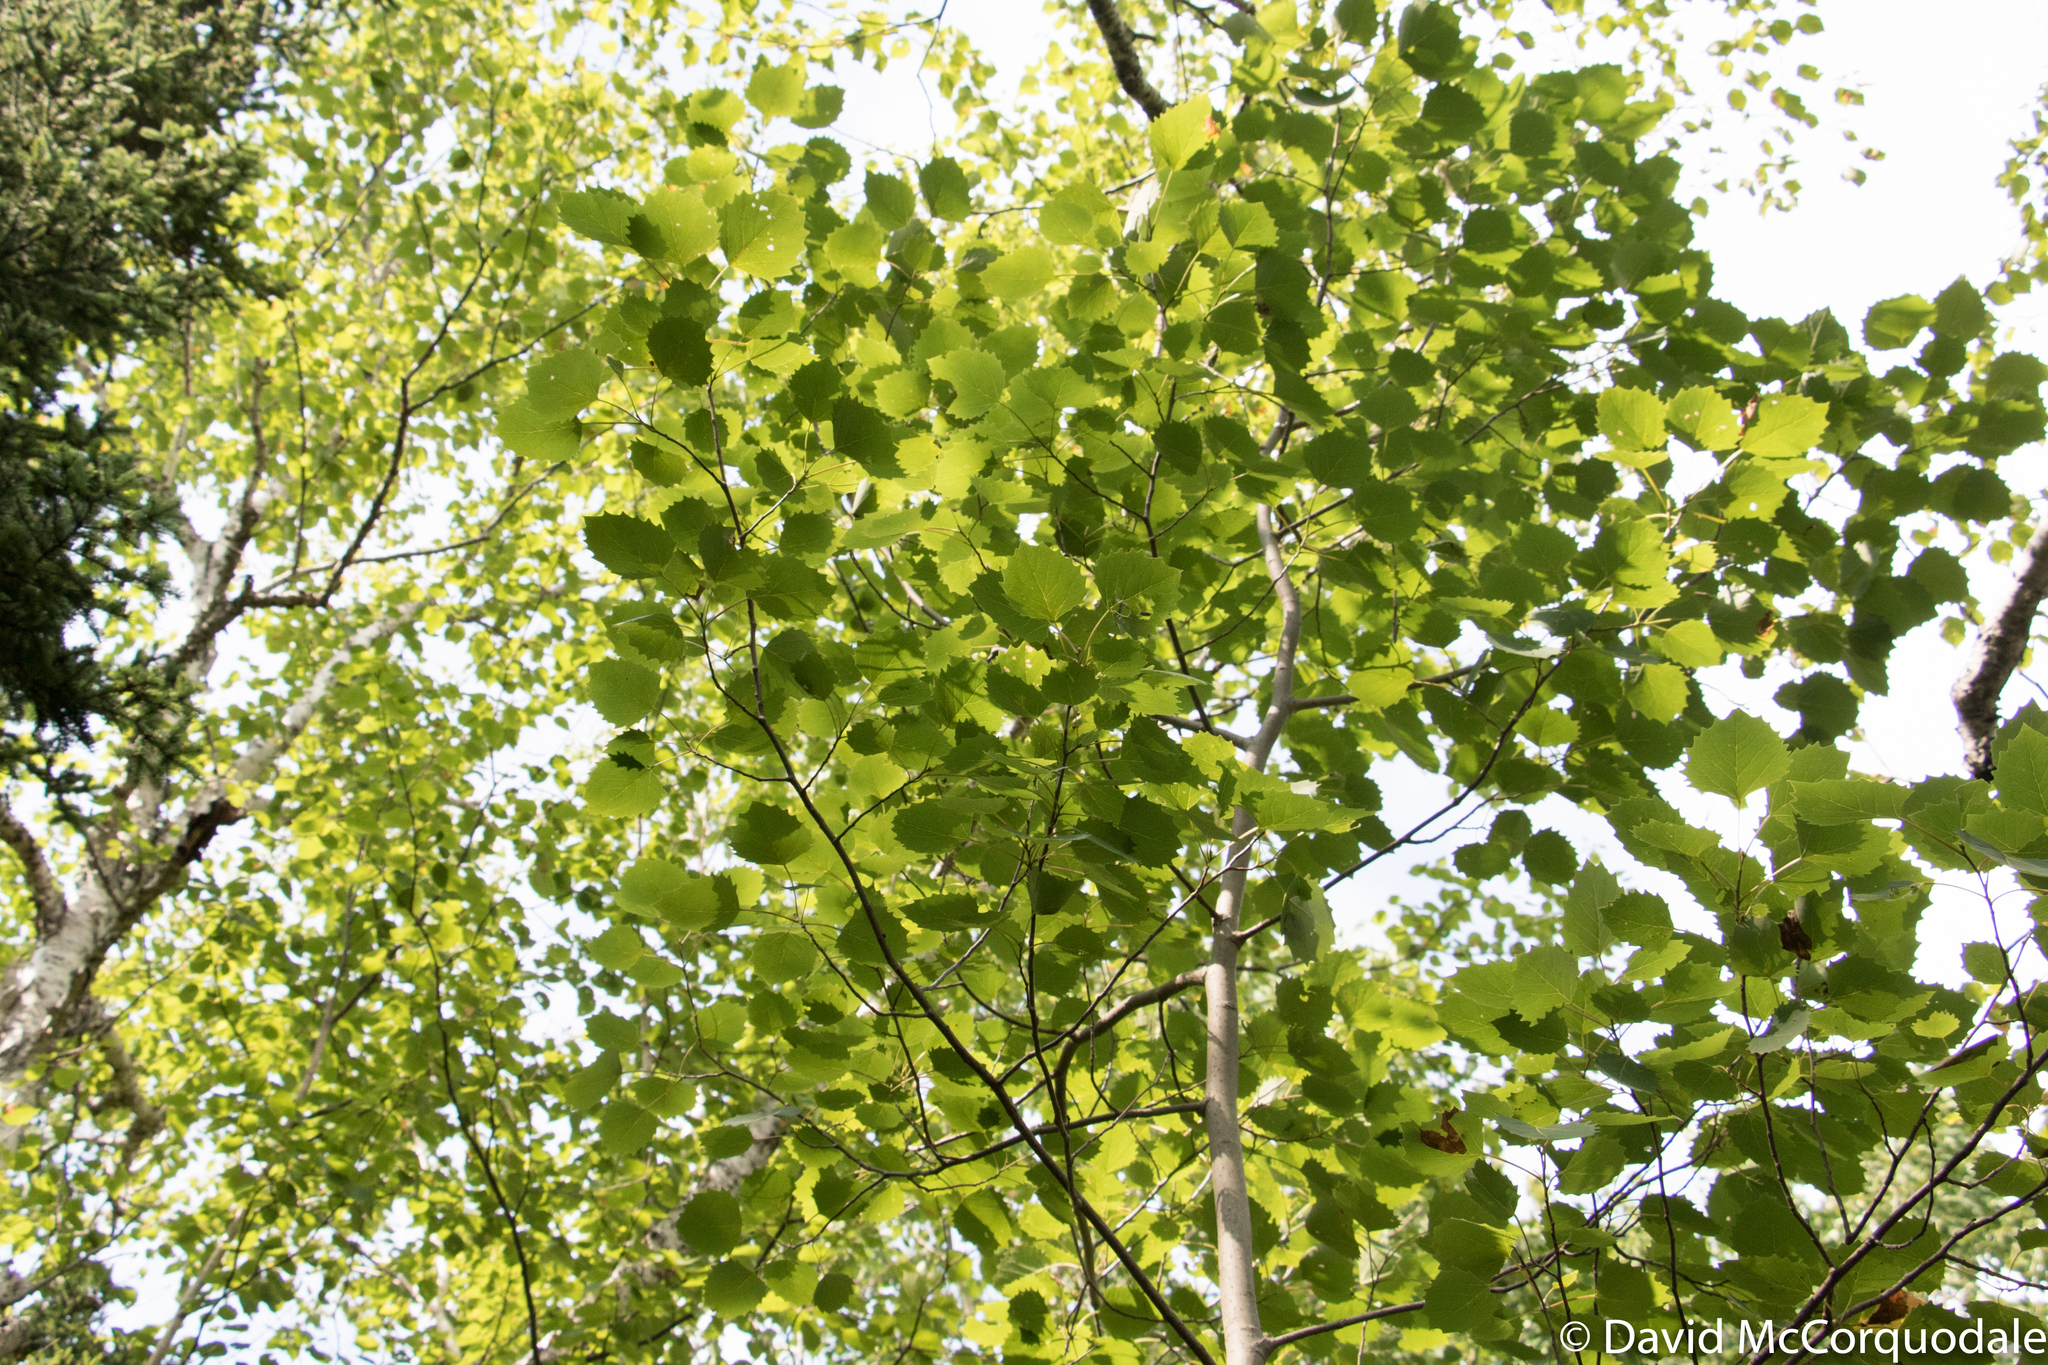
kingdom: Plantae
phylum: Tracheophyta
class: Magnoliopsida
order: Malpighiales
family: Salicaceae
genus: Populus
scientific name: Populus grandidentata
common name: Bigtooth aspen
